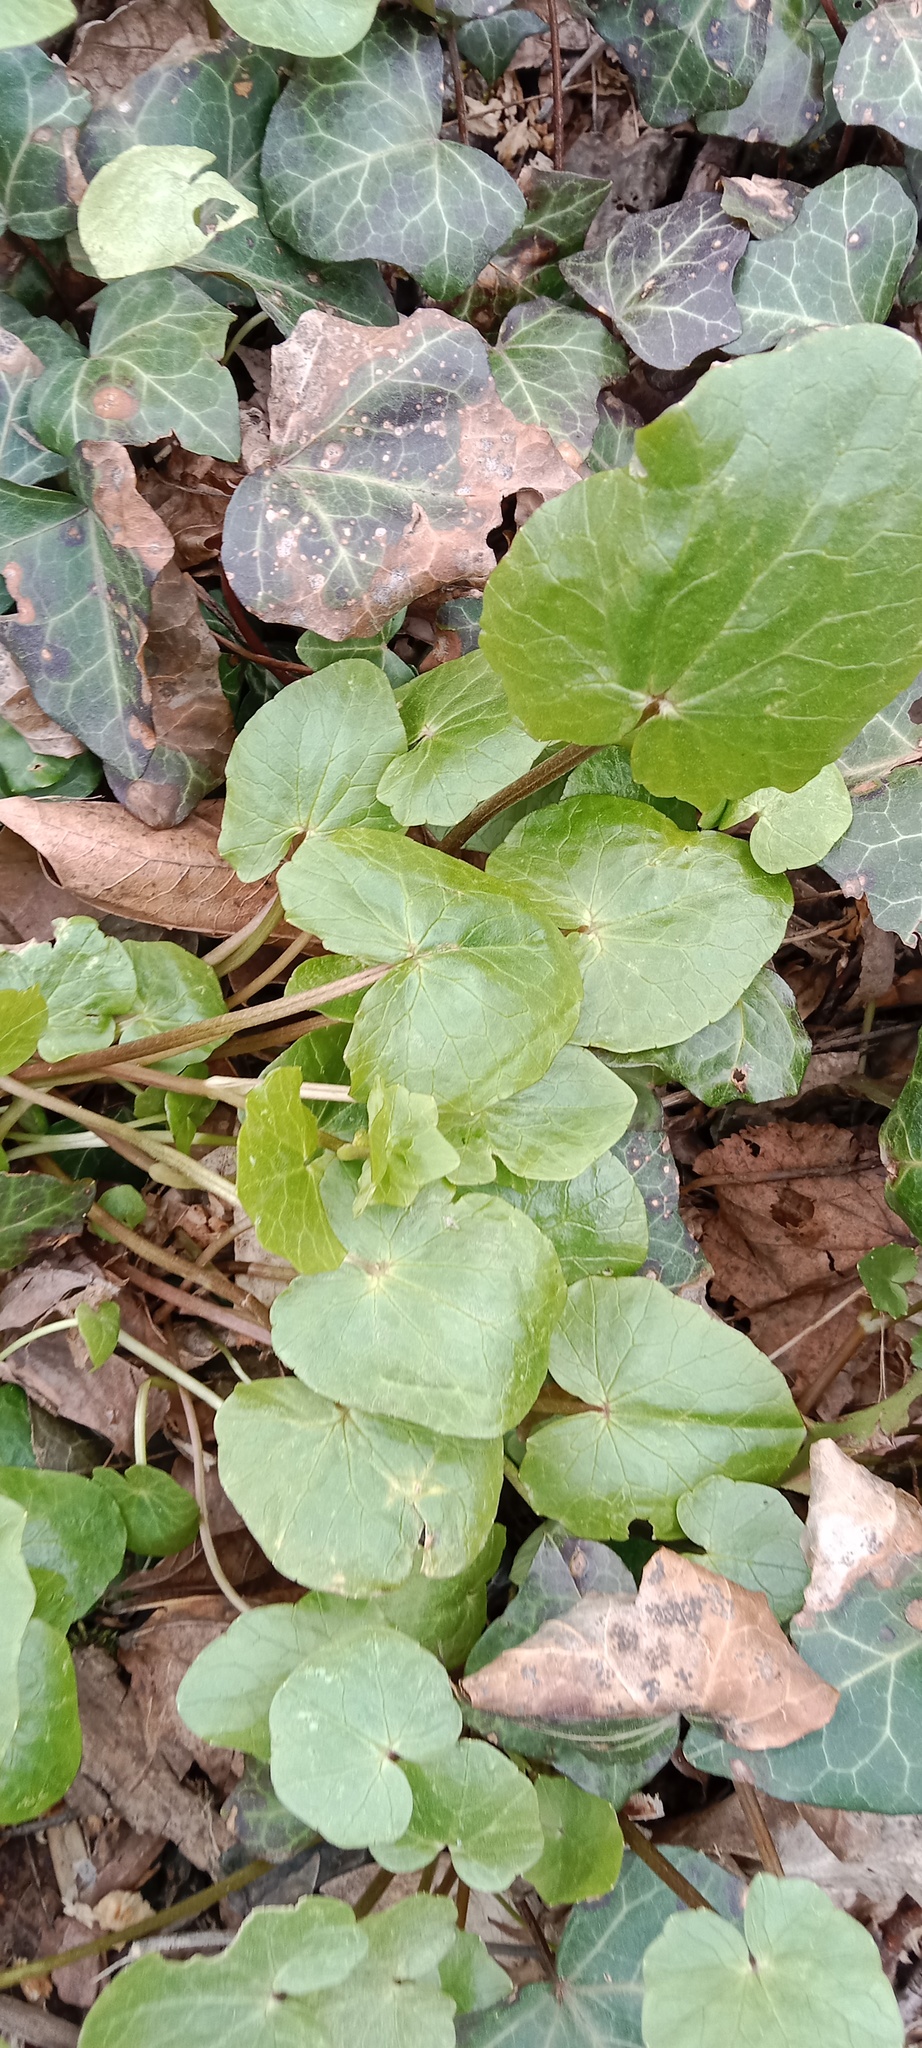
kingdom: Plantae
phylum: Tracheophyta
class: Magnoliopsida
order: Ranunculales
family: Ranunculaceae
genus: Ficaria
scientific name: Ficaria verna
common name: Lesser celandine
